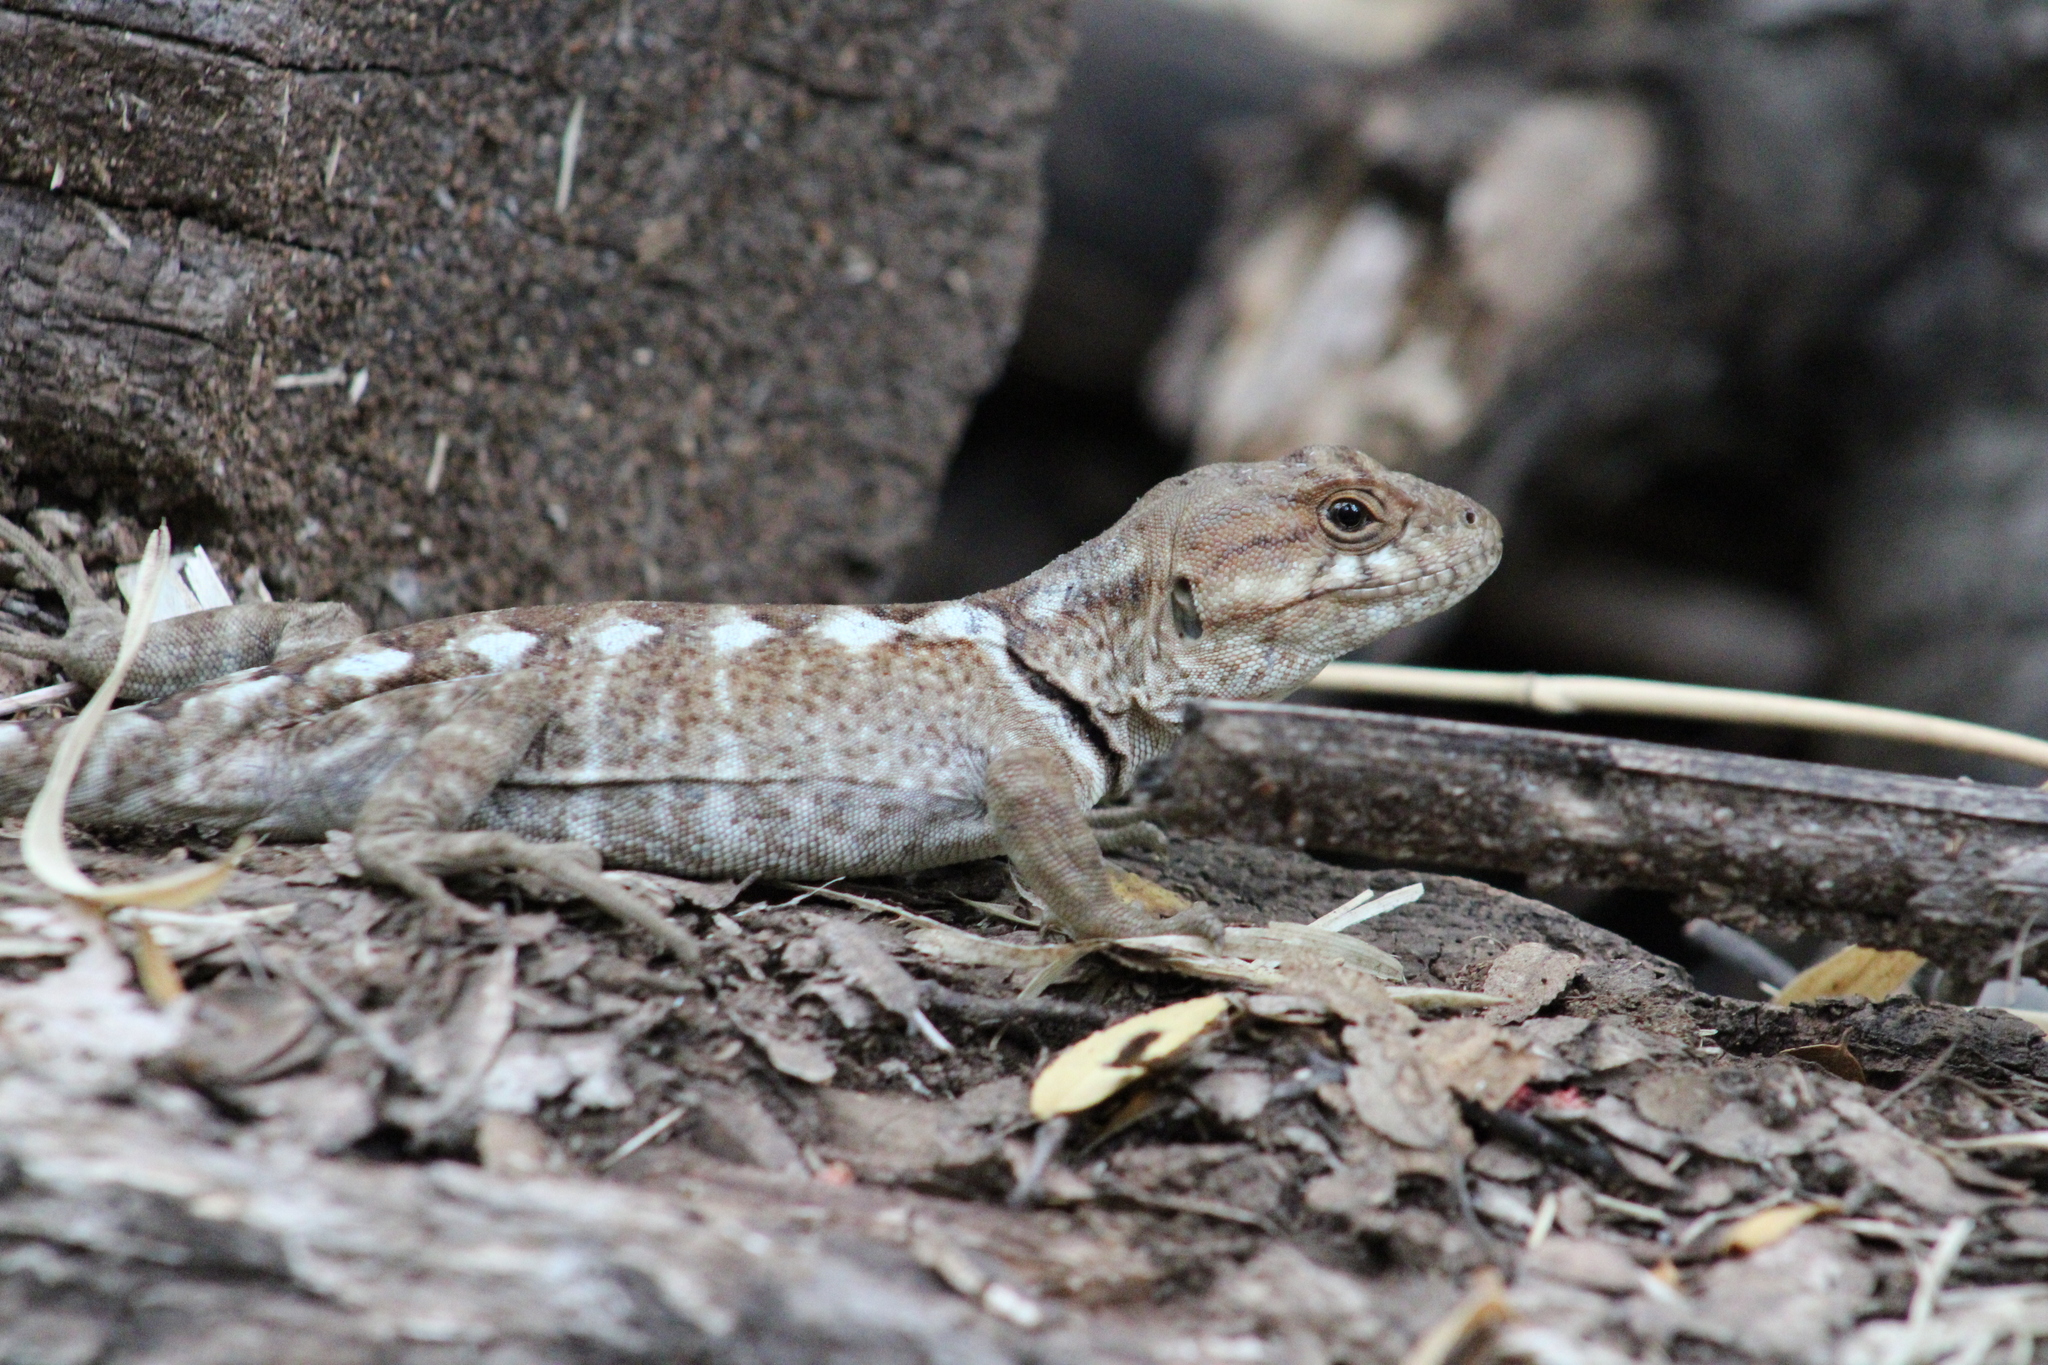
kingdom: Animalia
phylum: Chordata
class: Squamata
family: Leiosauridae
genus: Pristidactylus
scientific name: Pristidactylus torquatus
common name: Southern grumbler
